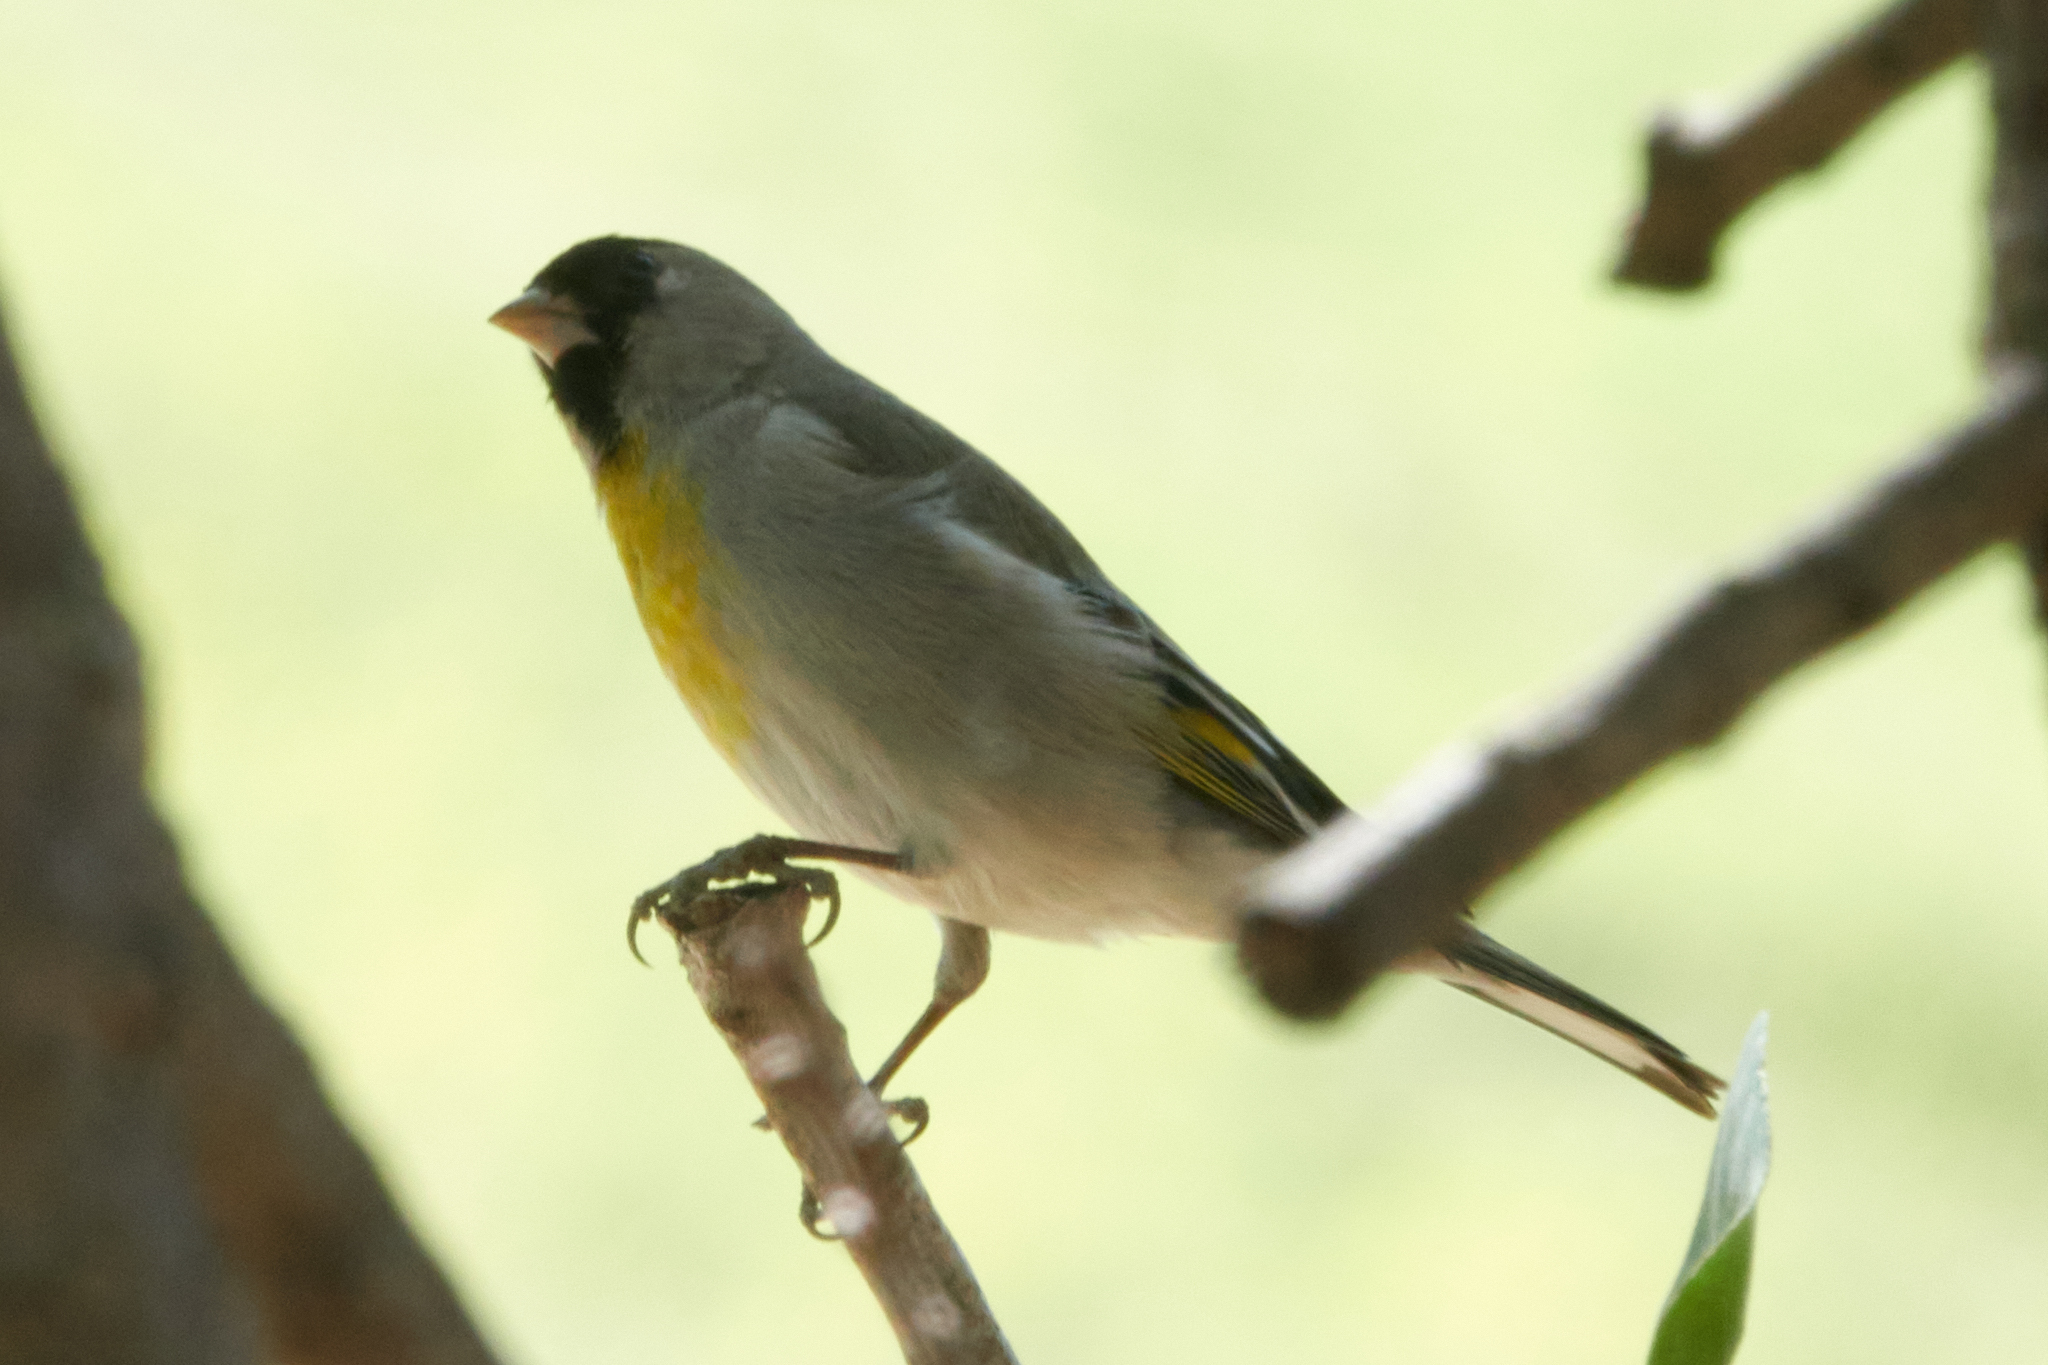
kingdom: Animalia
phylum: Chordata
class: Aves
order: Passeriformes
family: Fringillidae
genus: Spinus
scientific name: Spinus lawrencei
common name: Lawrence's goldfinch
